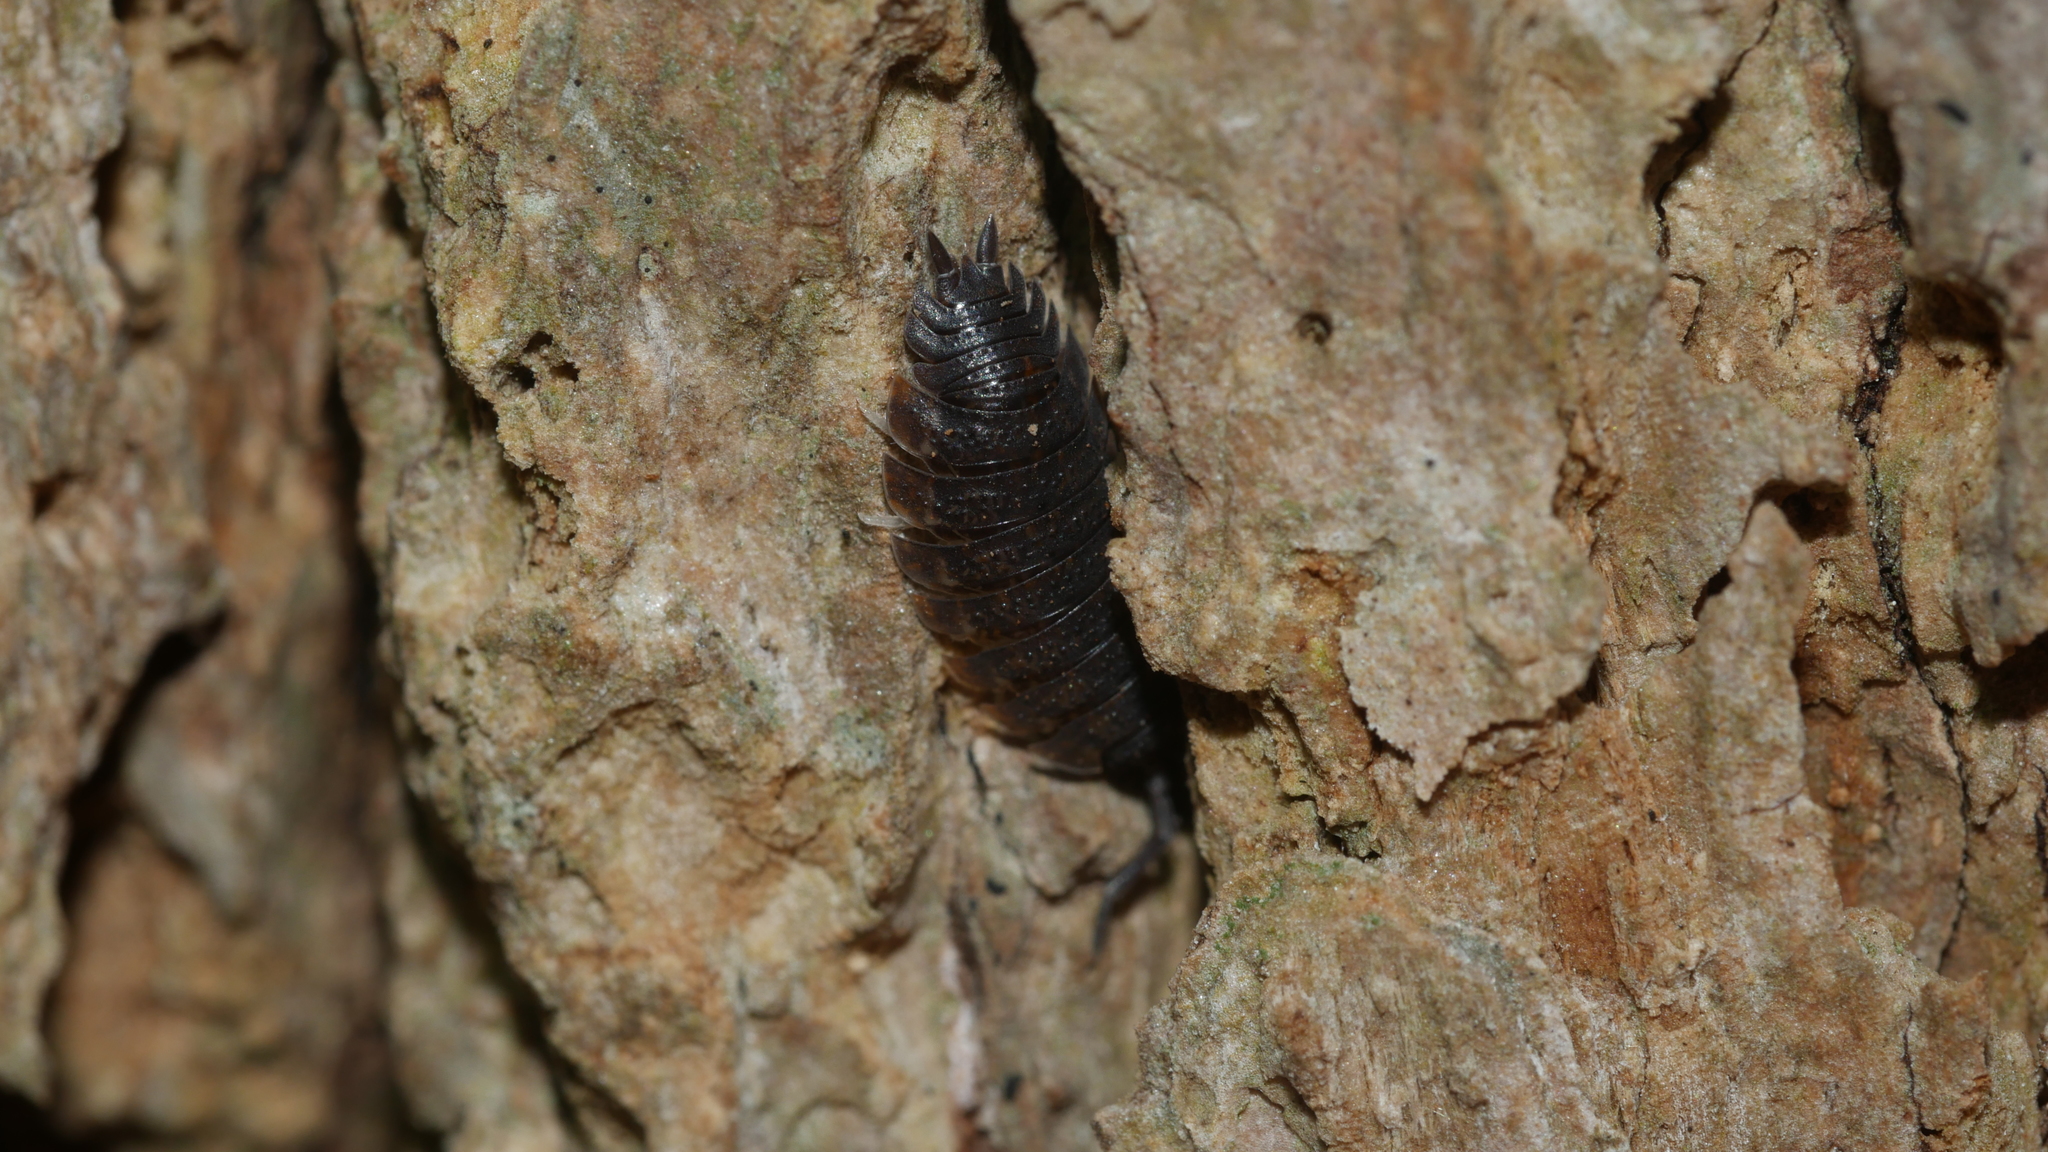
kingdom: Animalia
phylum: Arthropoda
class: Malacostraca
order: Isopoda
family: Porcellionidae
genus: Porcellio
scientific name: Porcellio scaber
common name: Common rough woodlouse
